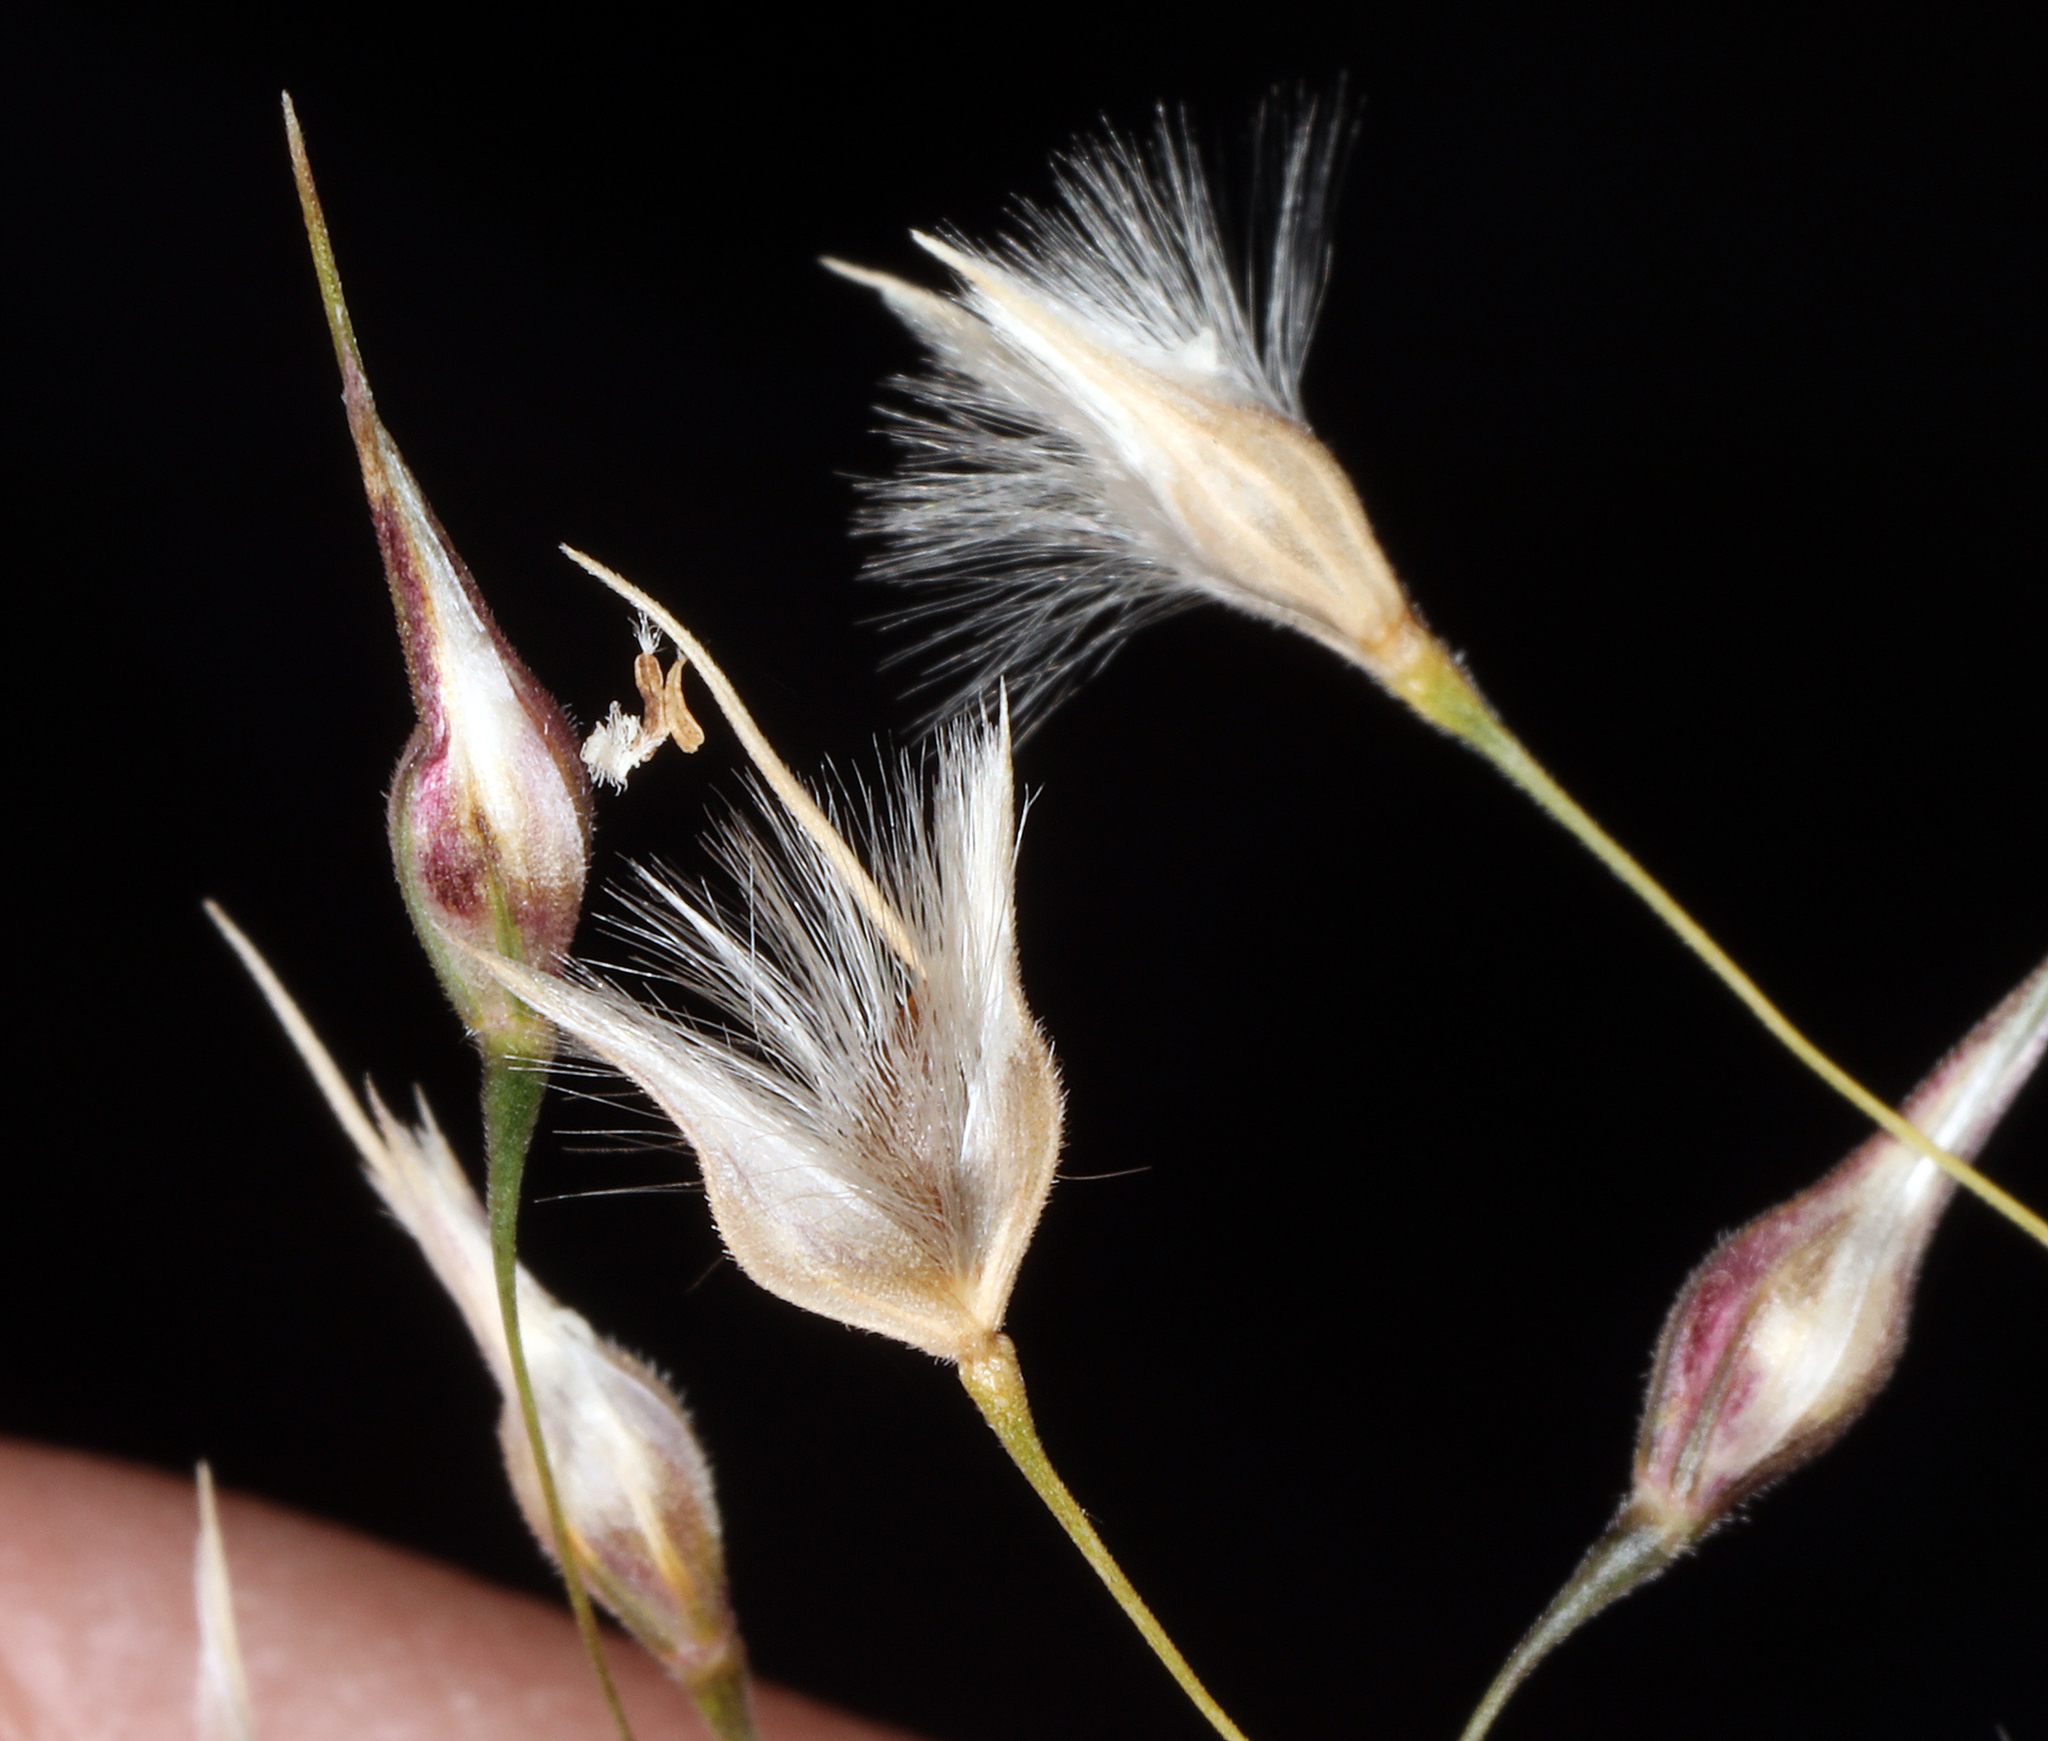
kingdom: Plantae
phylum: Tracheophyta
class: Liliopsida
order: Poales
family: Poaceae
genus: Eriocoma
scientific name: Eriocoma hymenoides
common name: Indian mountain ricegrass
